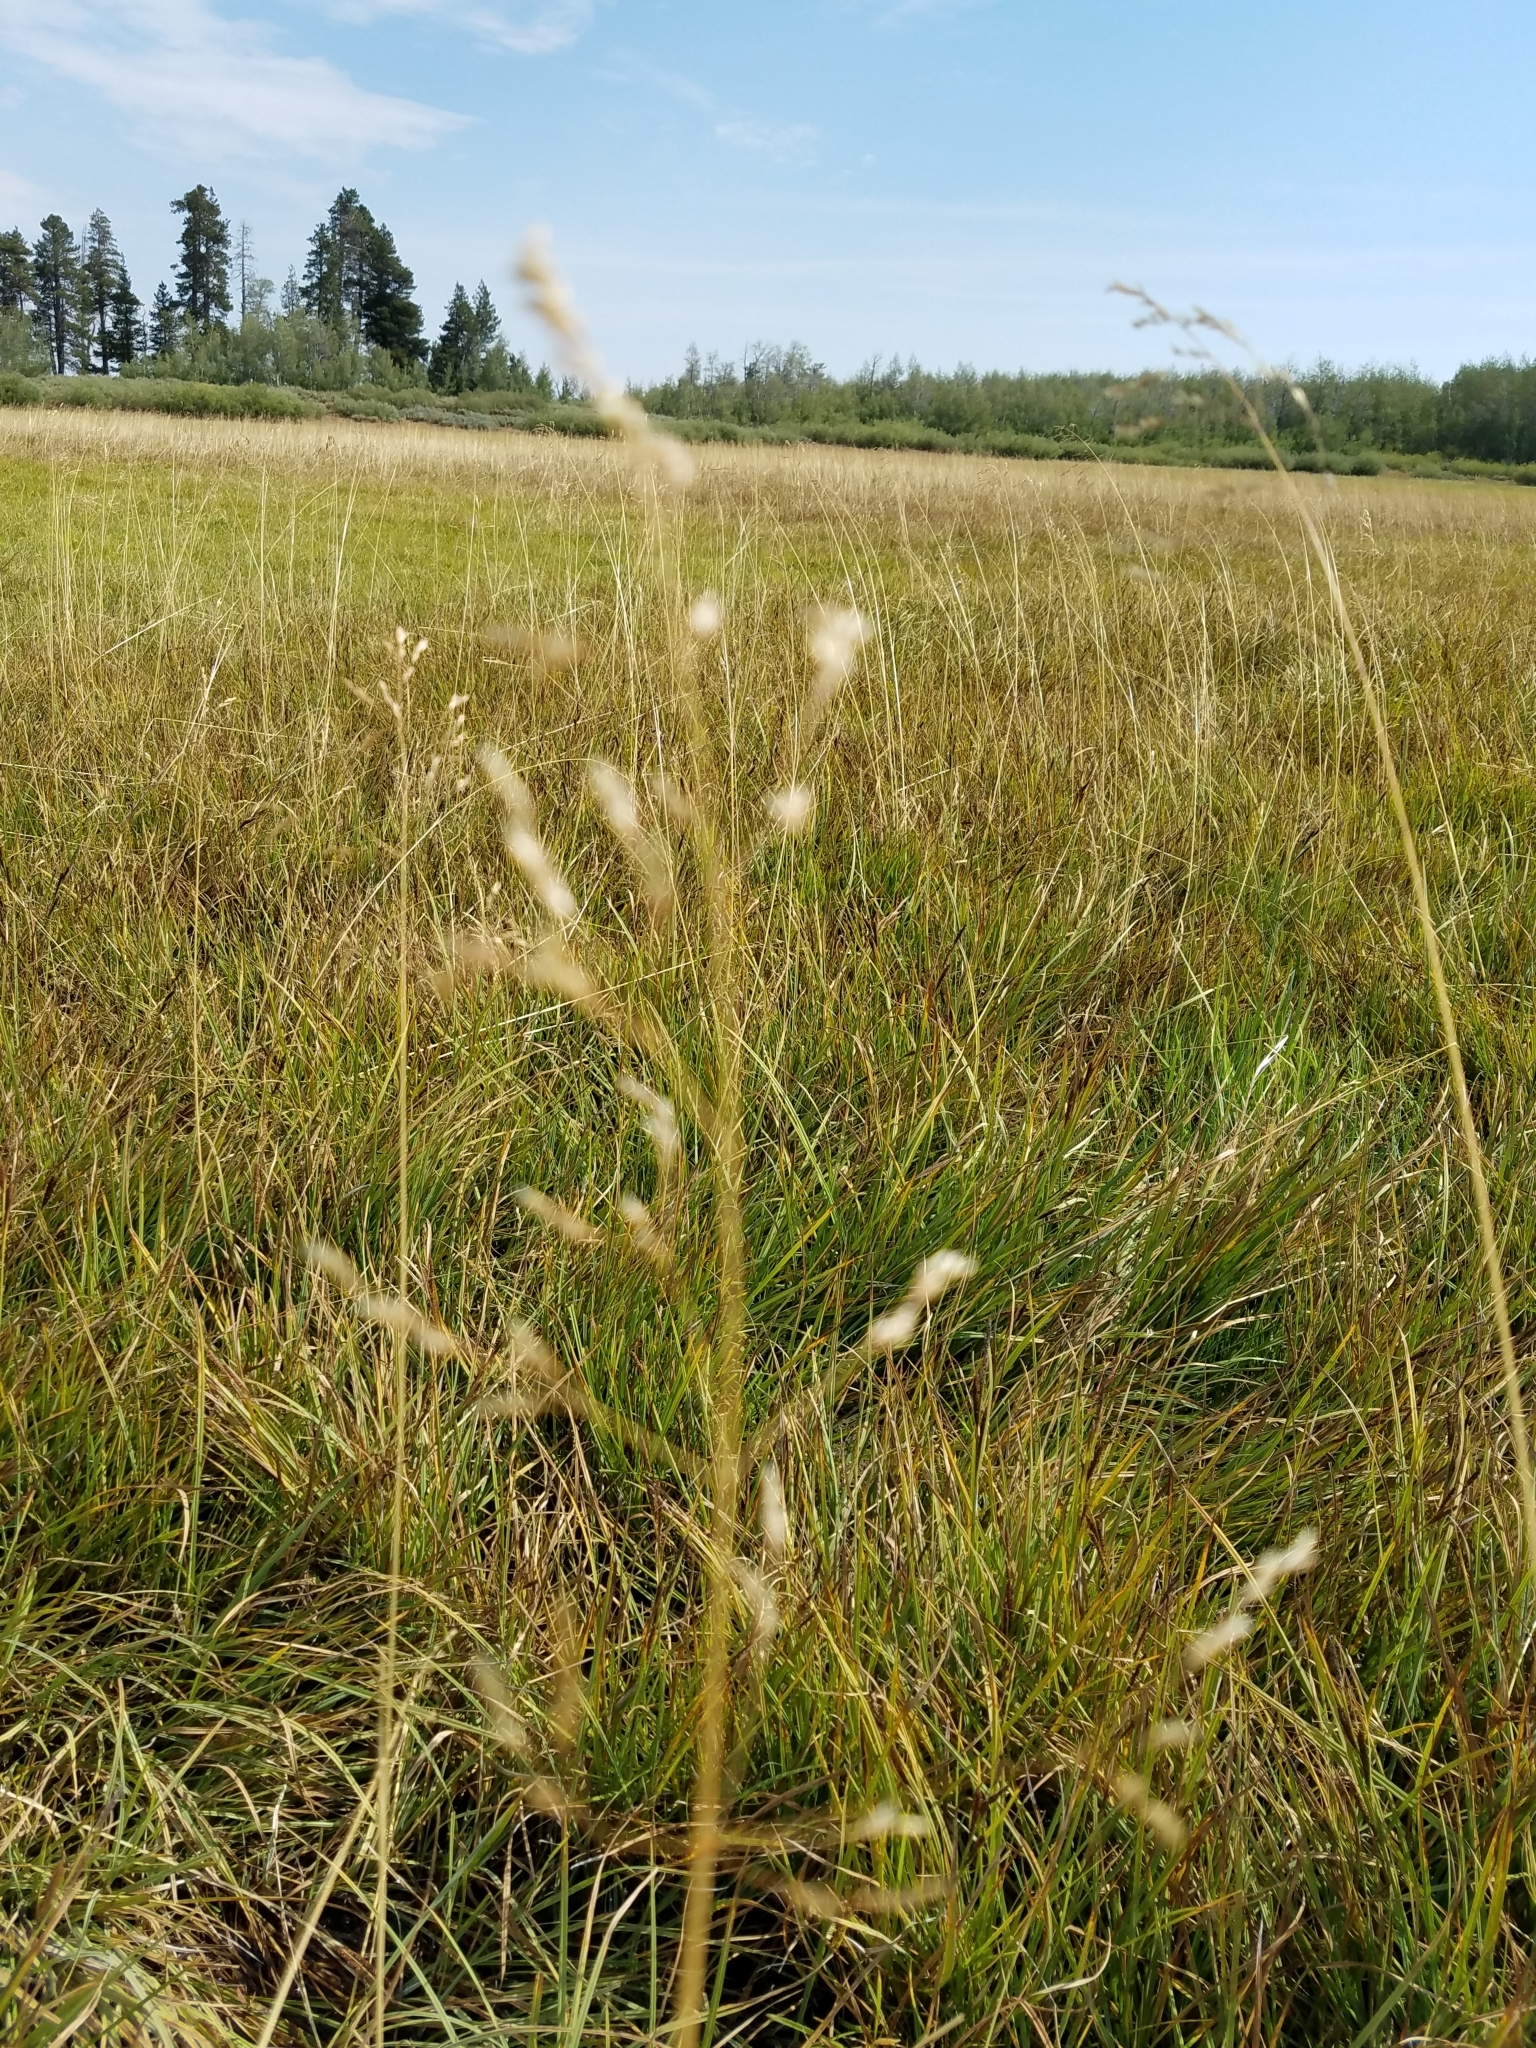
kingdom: Plantae
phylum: Tracheophyta
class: Liliopsida
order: Poales
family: Poaceae
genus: Deschampsia
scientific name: Deschampsia cespitosa
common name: Tufted hair-grass
